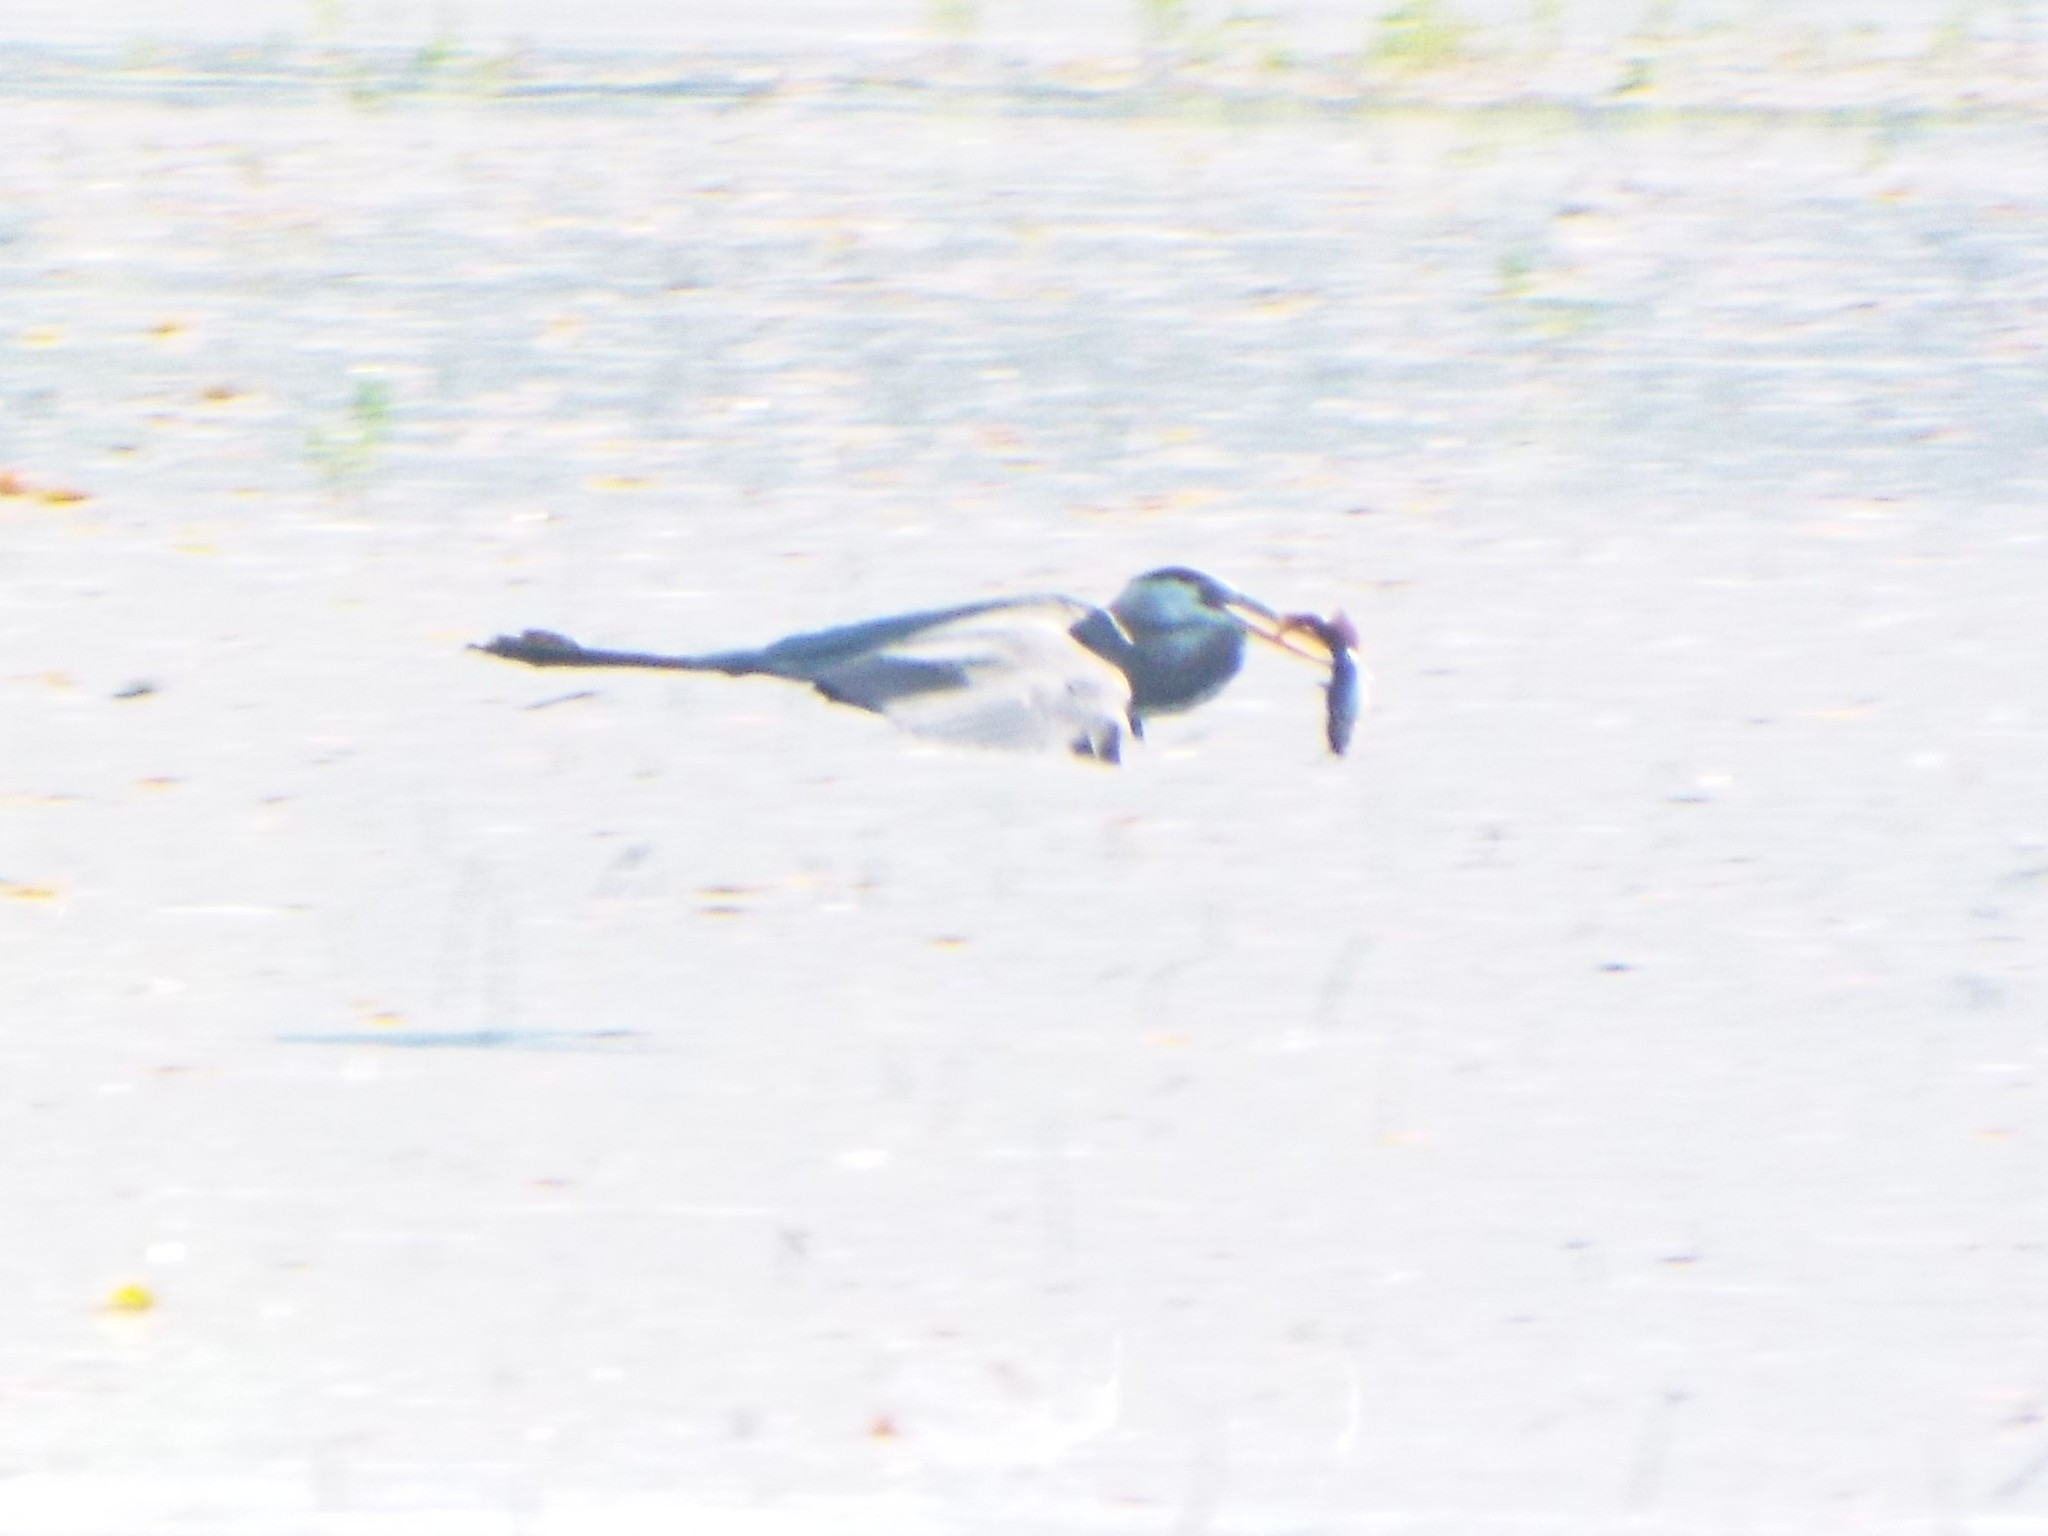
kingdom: Animalia
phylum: Chordata
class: Aves
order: Pelecaniformes
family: Ardeidae
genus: Ardea
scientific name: Ardea herodias
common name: Great blue heron
